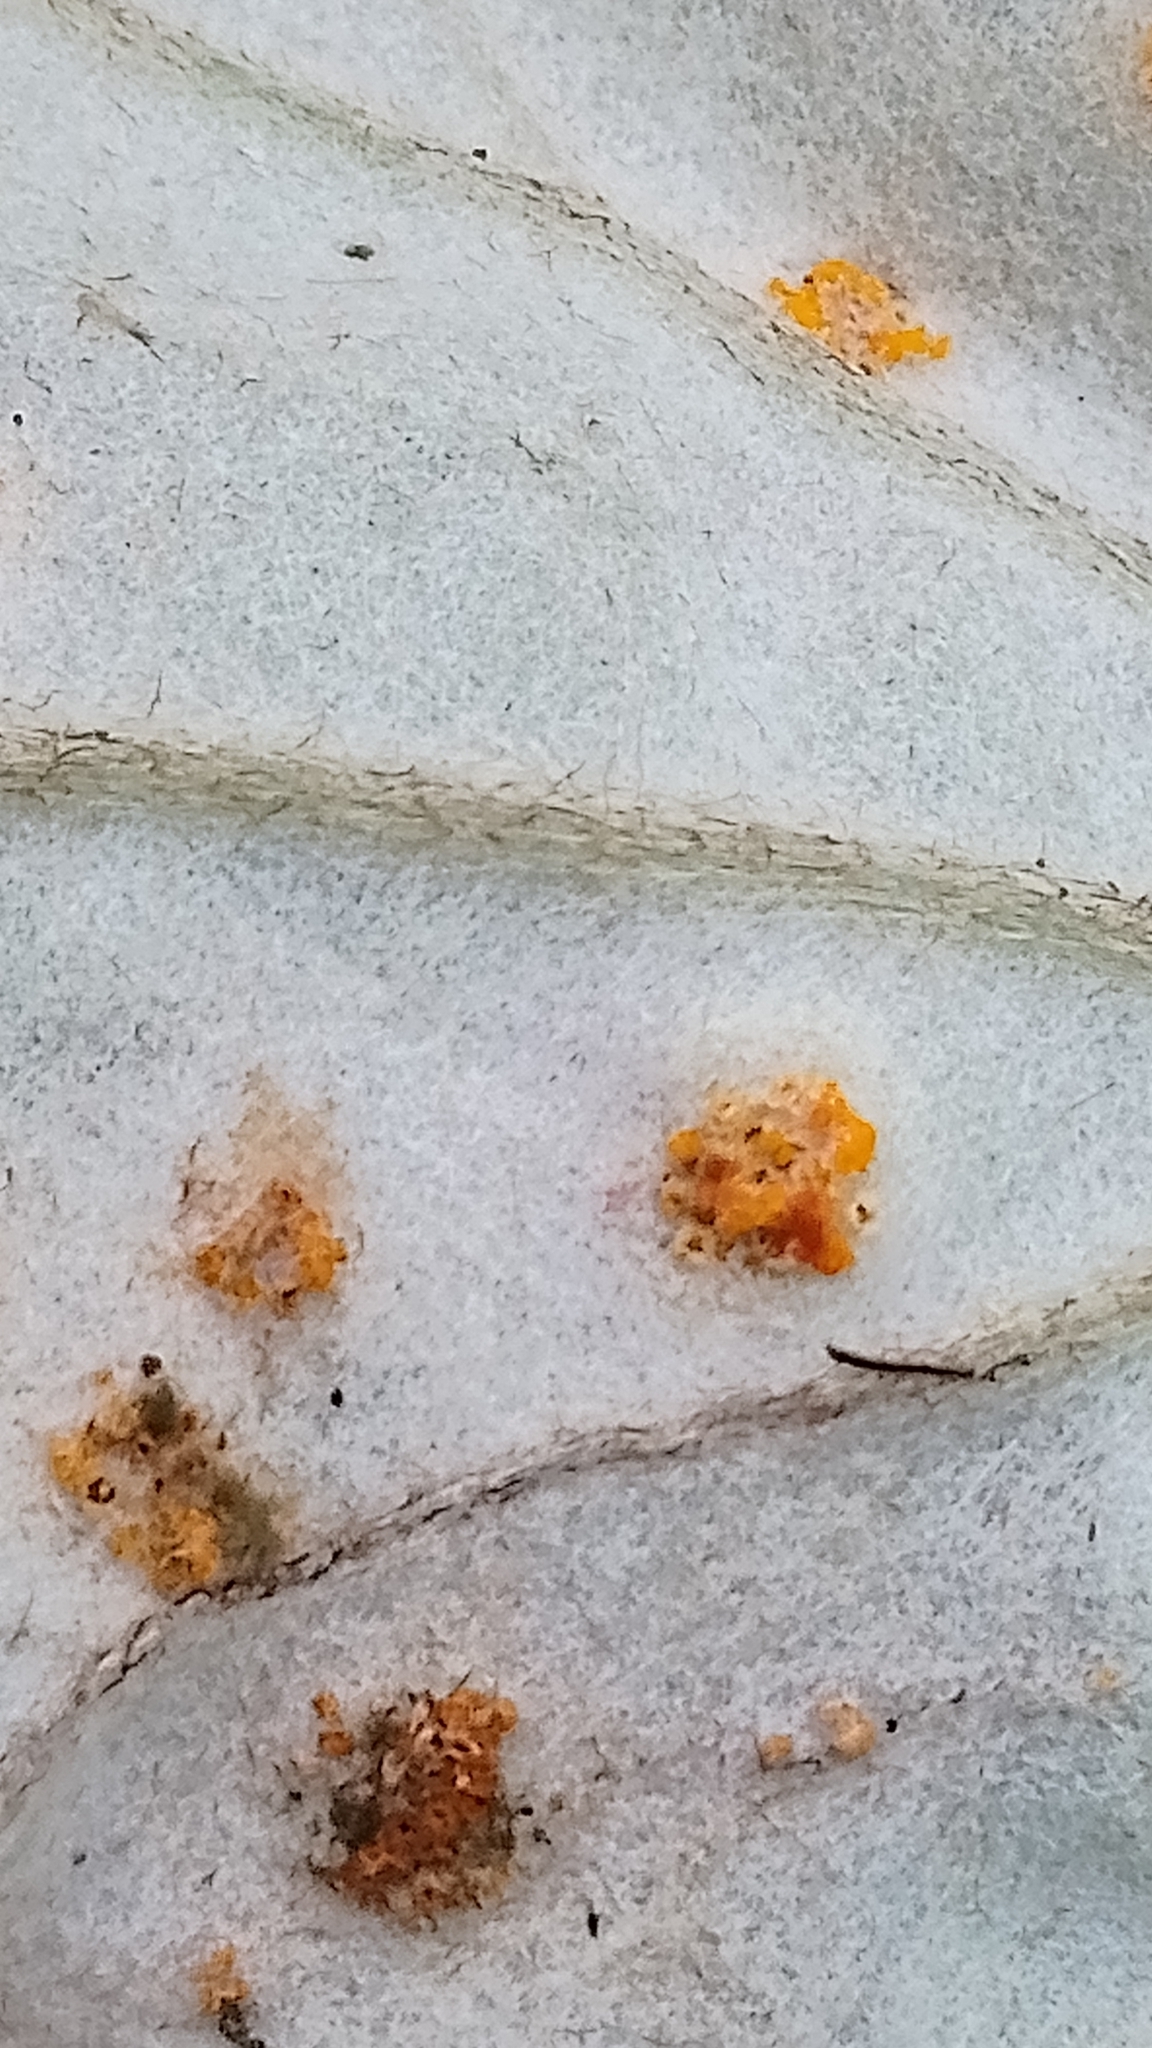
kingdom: Fungi
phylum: Basidiomycota
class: Pucciniomycetes
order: Pucciniales
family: Pucciniaceae
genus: Puccinia
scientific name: Puccinia
